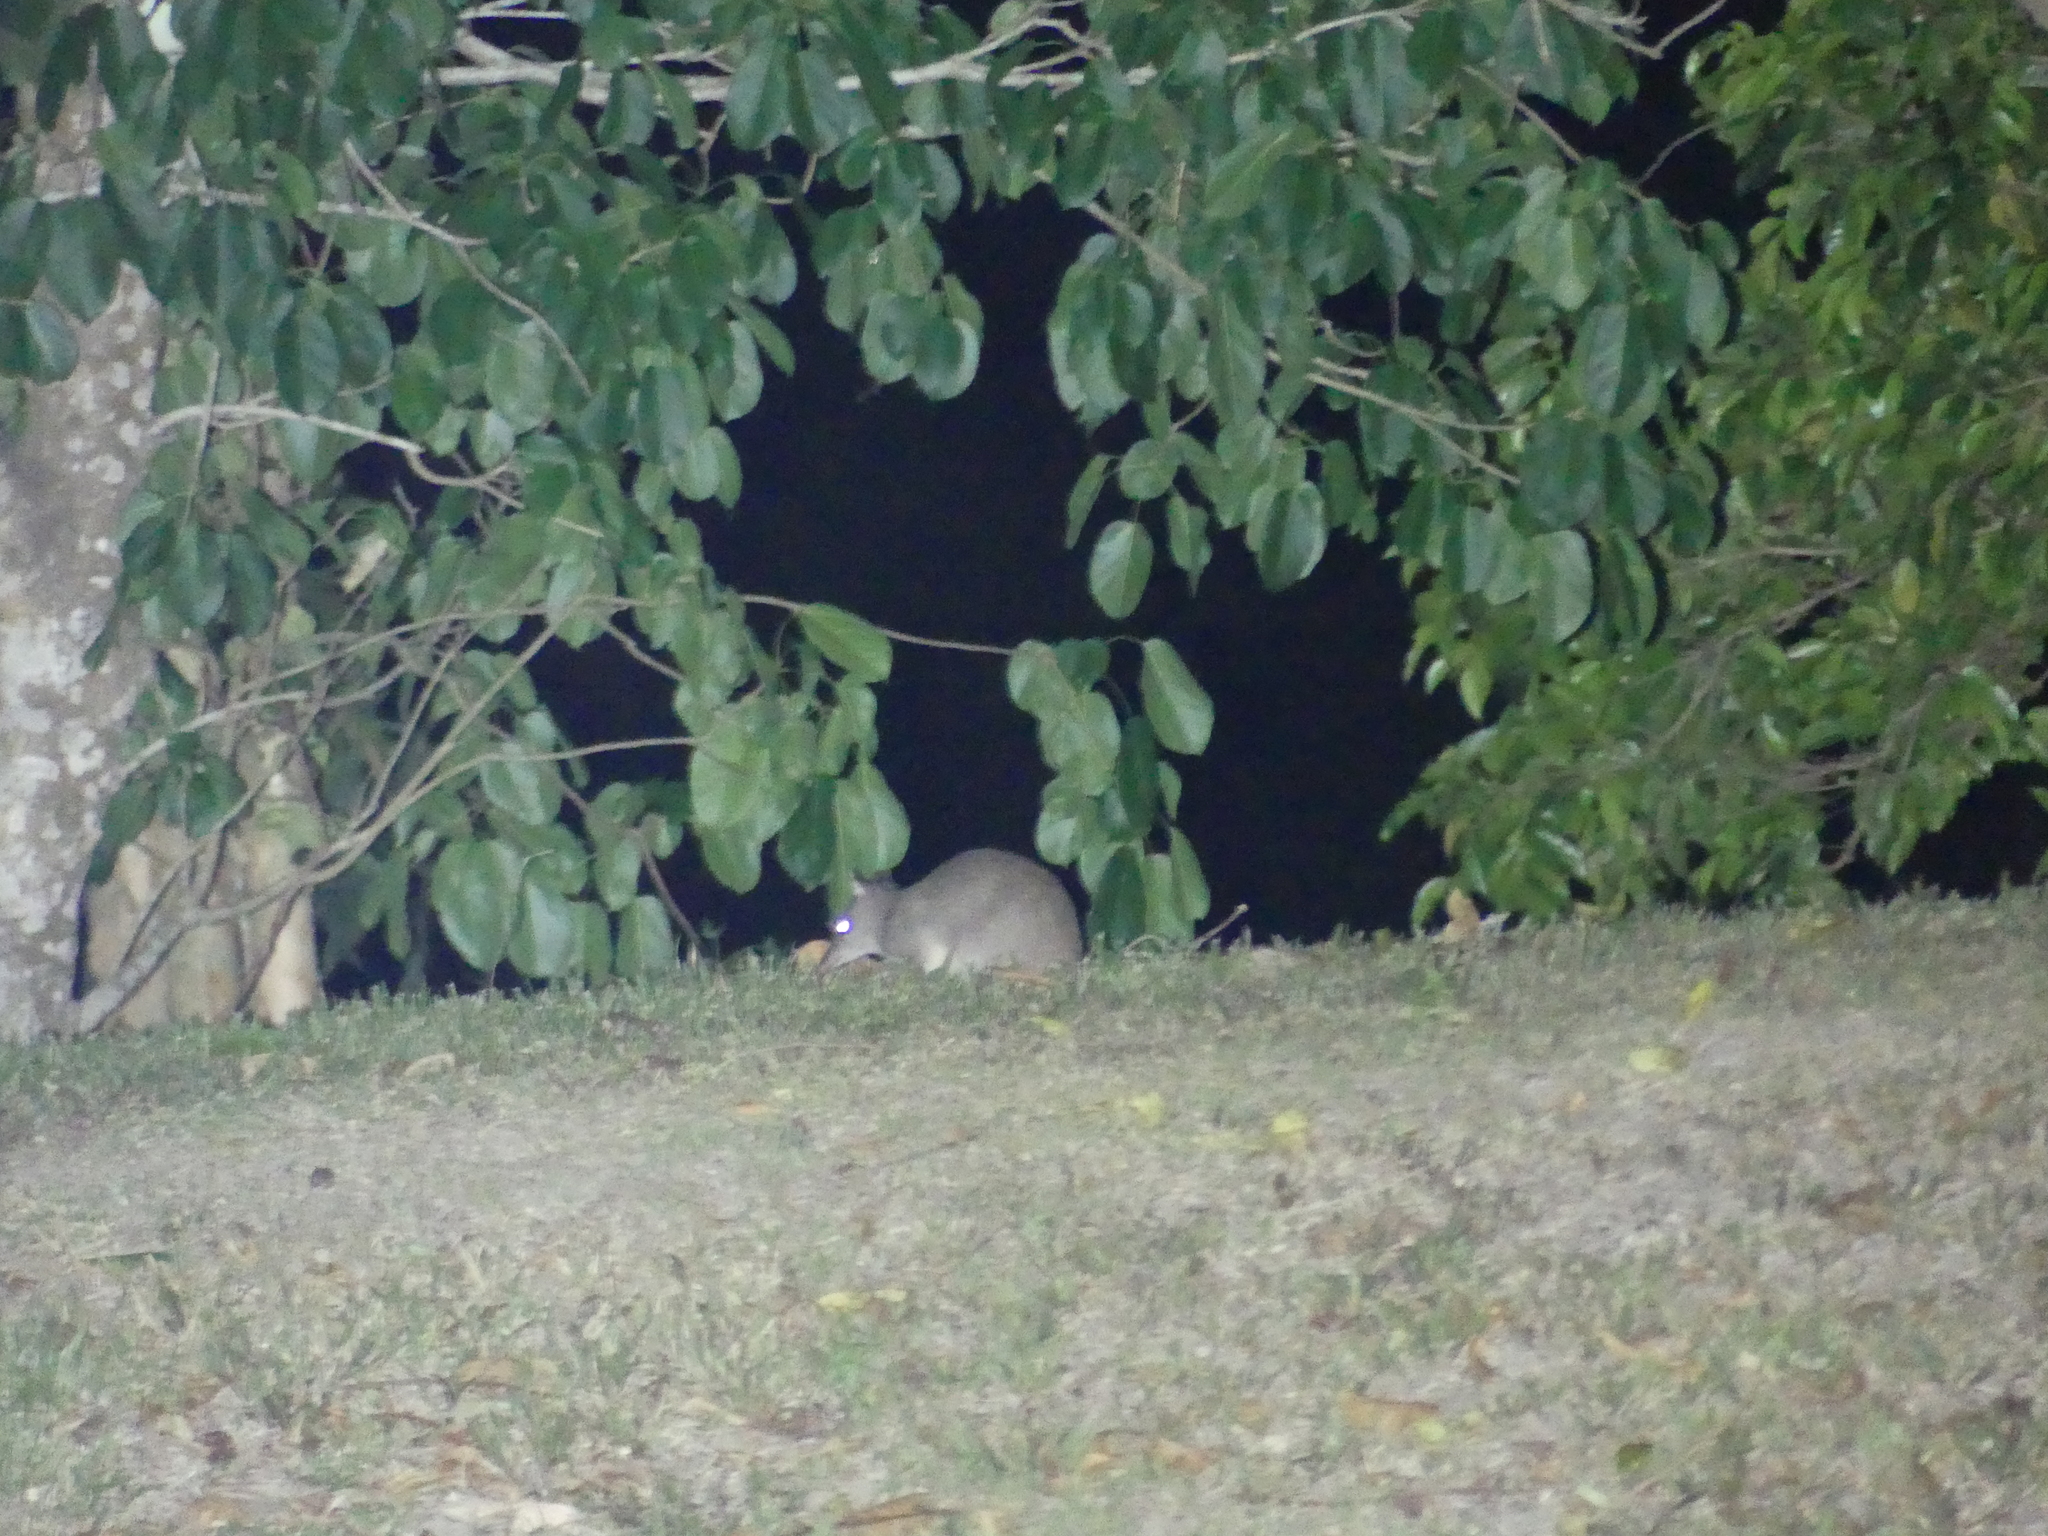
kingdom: Animalia
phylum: Chordata
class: Mammalia
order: Peramelemorphia
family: Peramelidae
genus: Perameles
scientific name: Perameles pallescens
